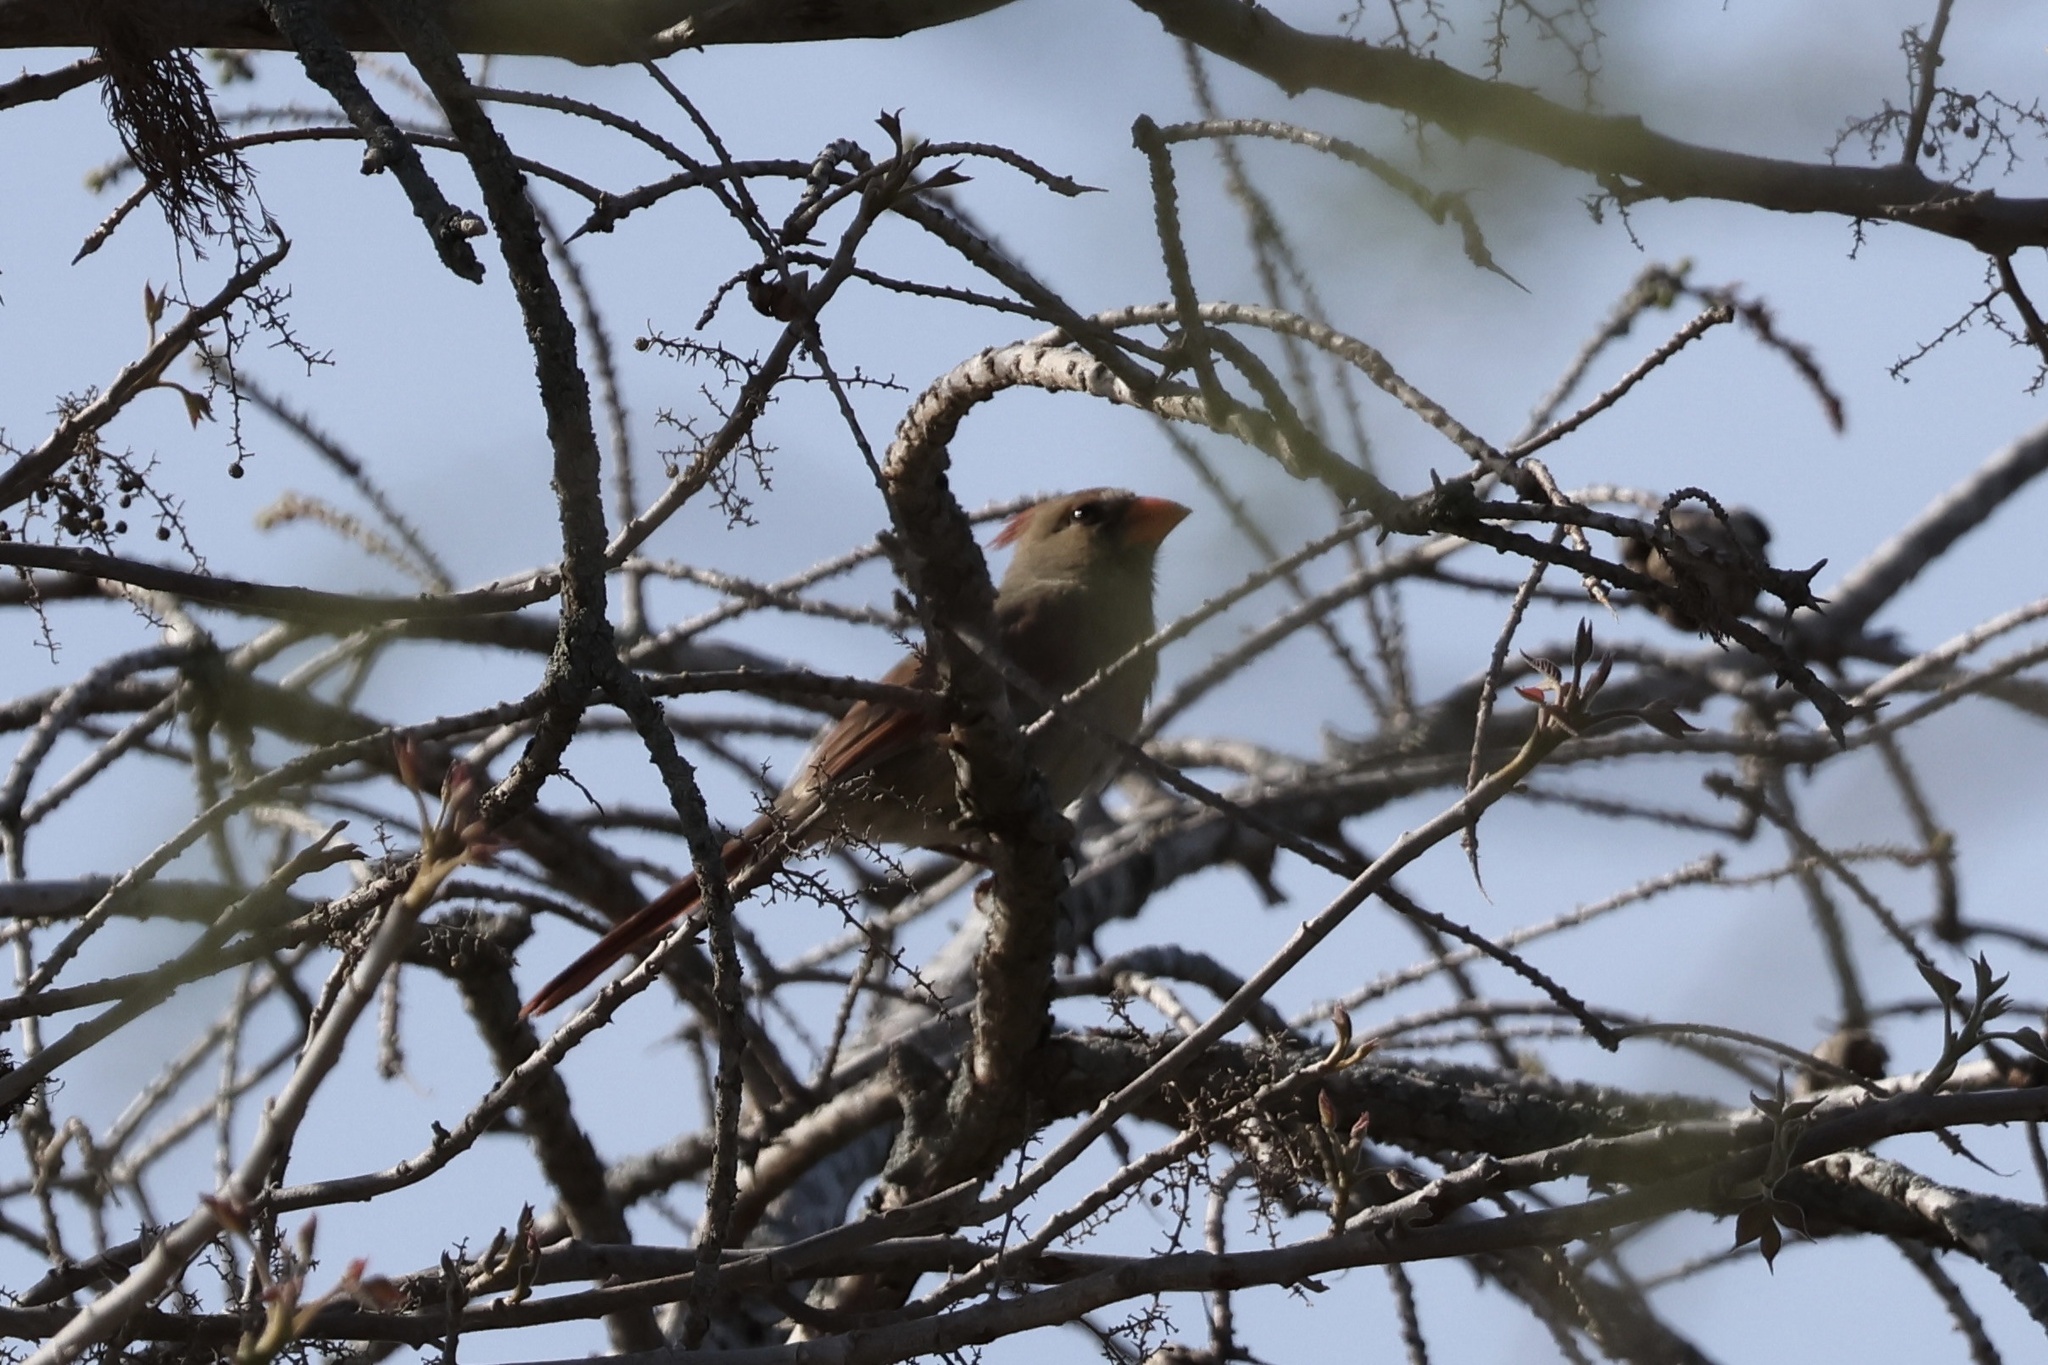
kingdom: Animalia
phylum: Chordata
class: Aves
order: Passeriformes
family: Cardinalidae
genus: Cardinalis
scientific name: Cardinalis cardinalis
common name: Northern cardinal
